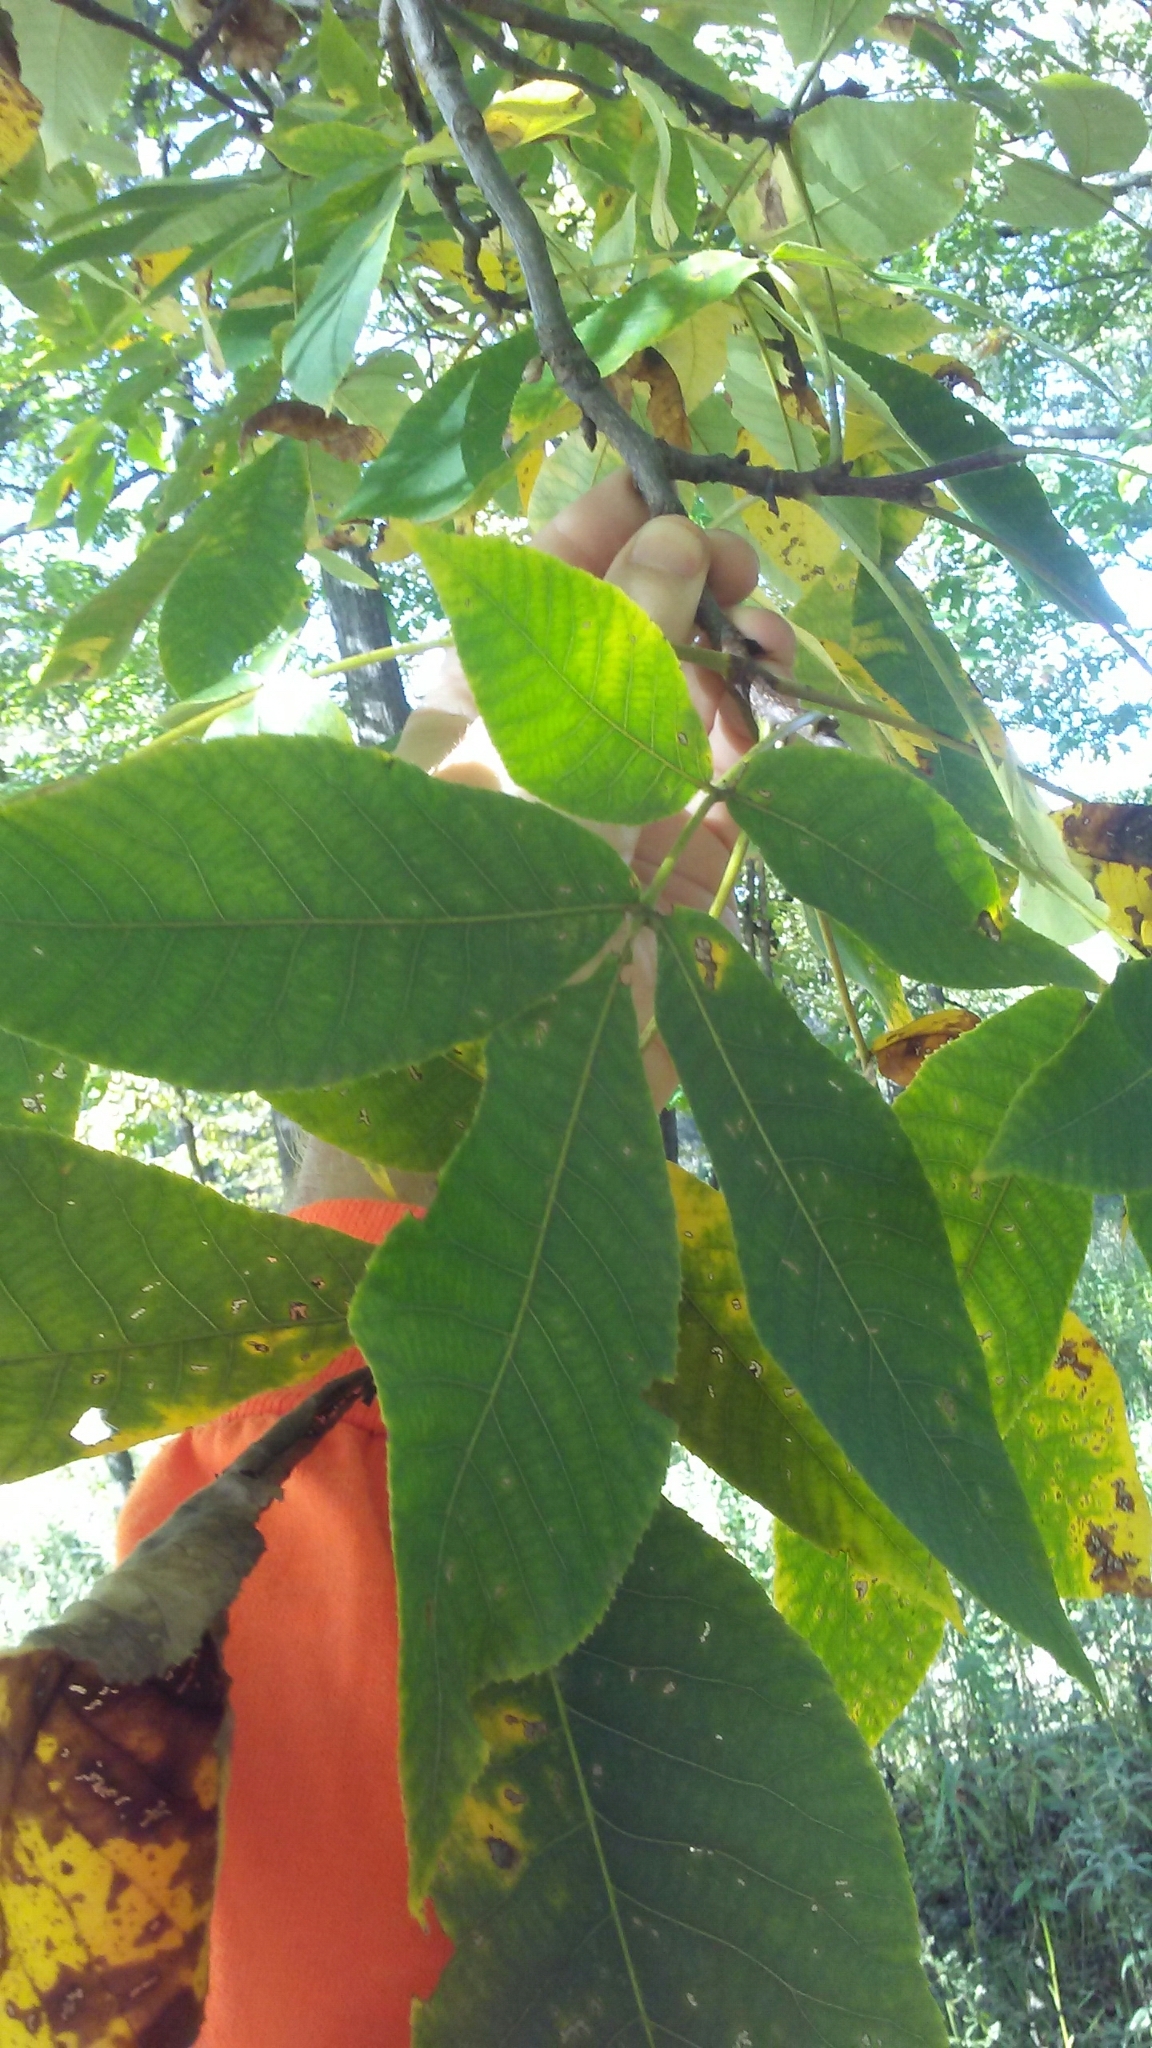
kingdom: Plantae
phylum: Tracheophyta
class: Magnoliopsida
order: Fagales
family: Juglandaceae
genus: Carya
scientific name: Carya ovata
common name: Shagbark hickory
